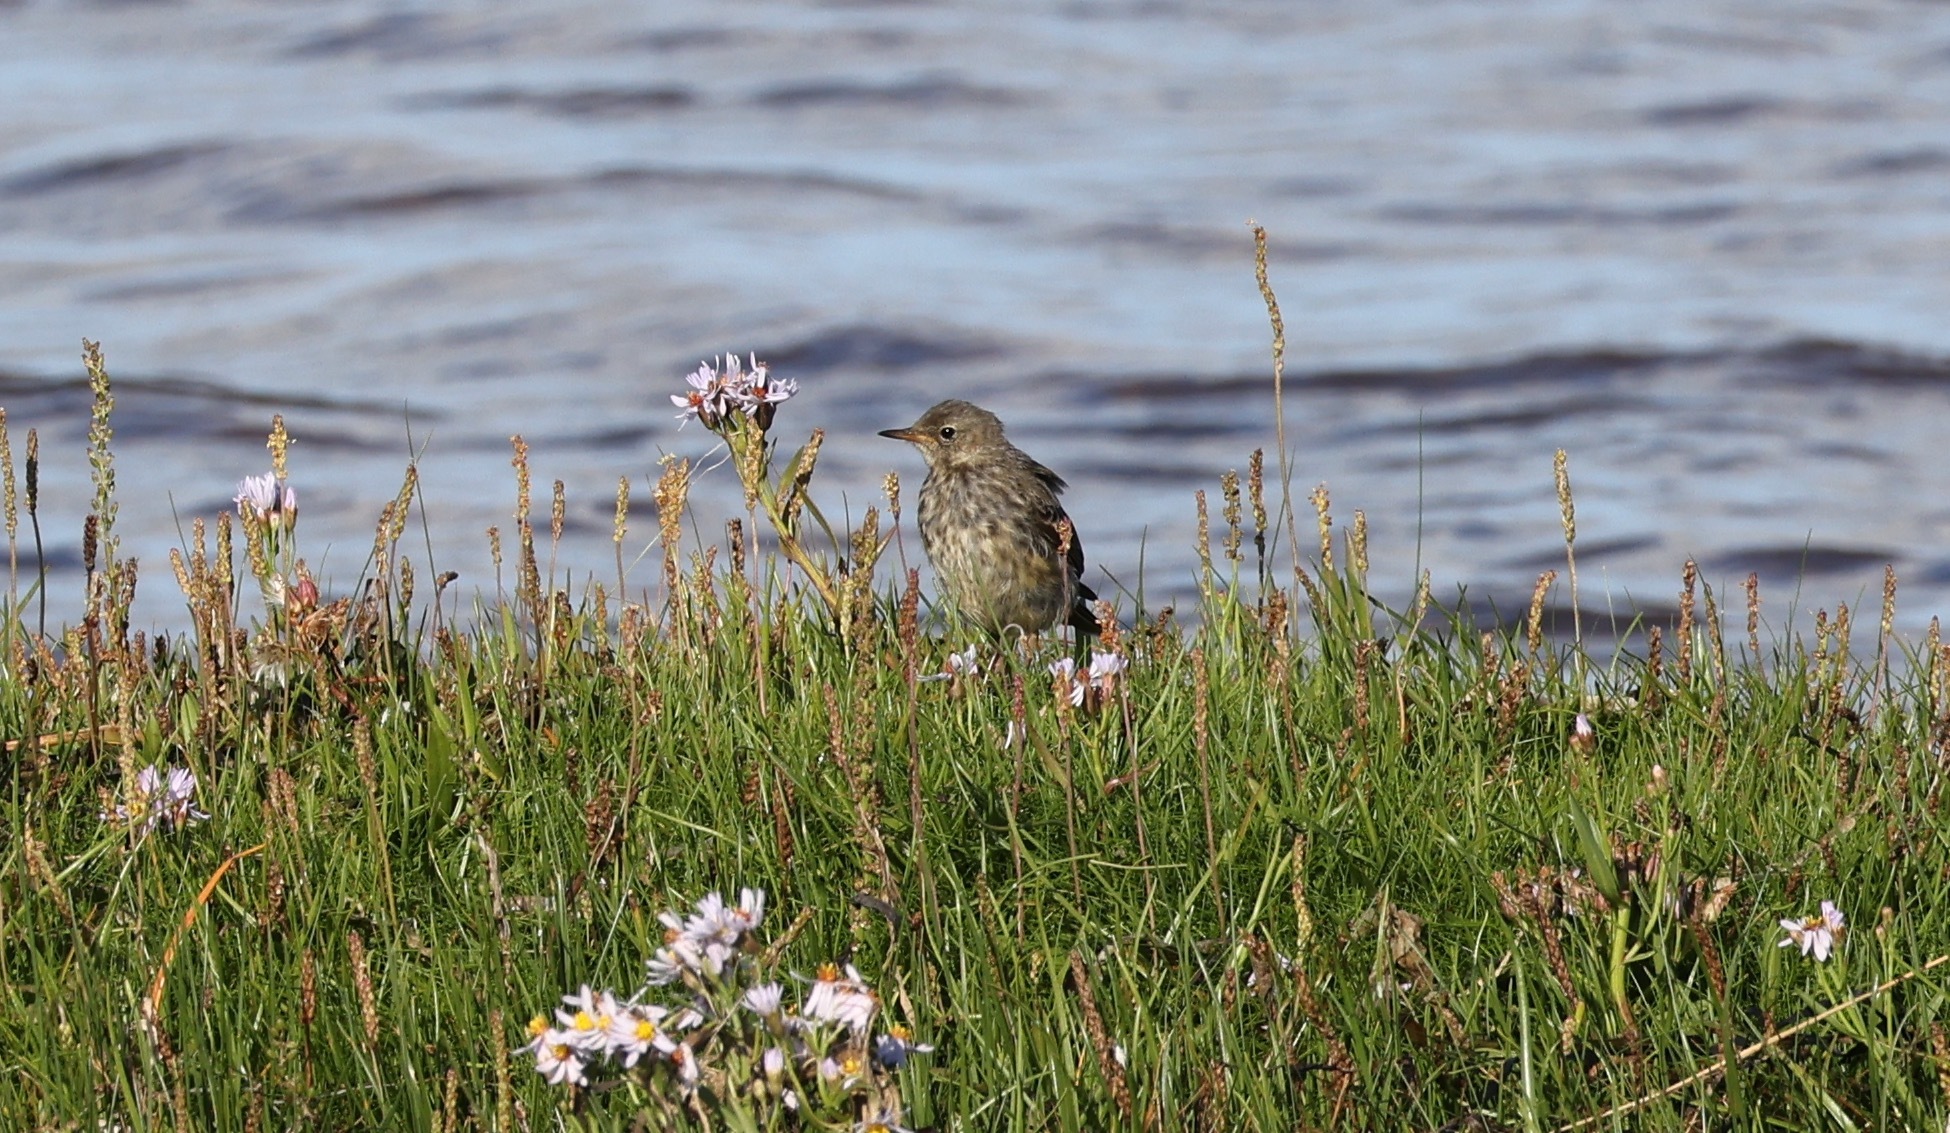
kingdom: Animalia
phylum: Chordata
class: Aves
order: Passeriformes
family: Motacillidae
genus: Anthus
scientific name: Anthus petrosus
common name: Eurasian rock pipit
